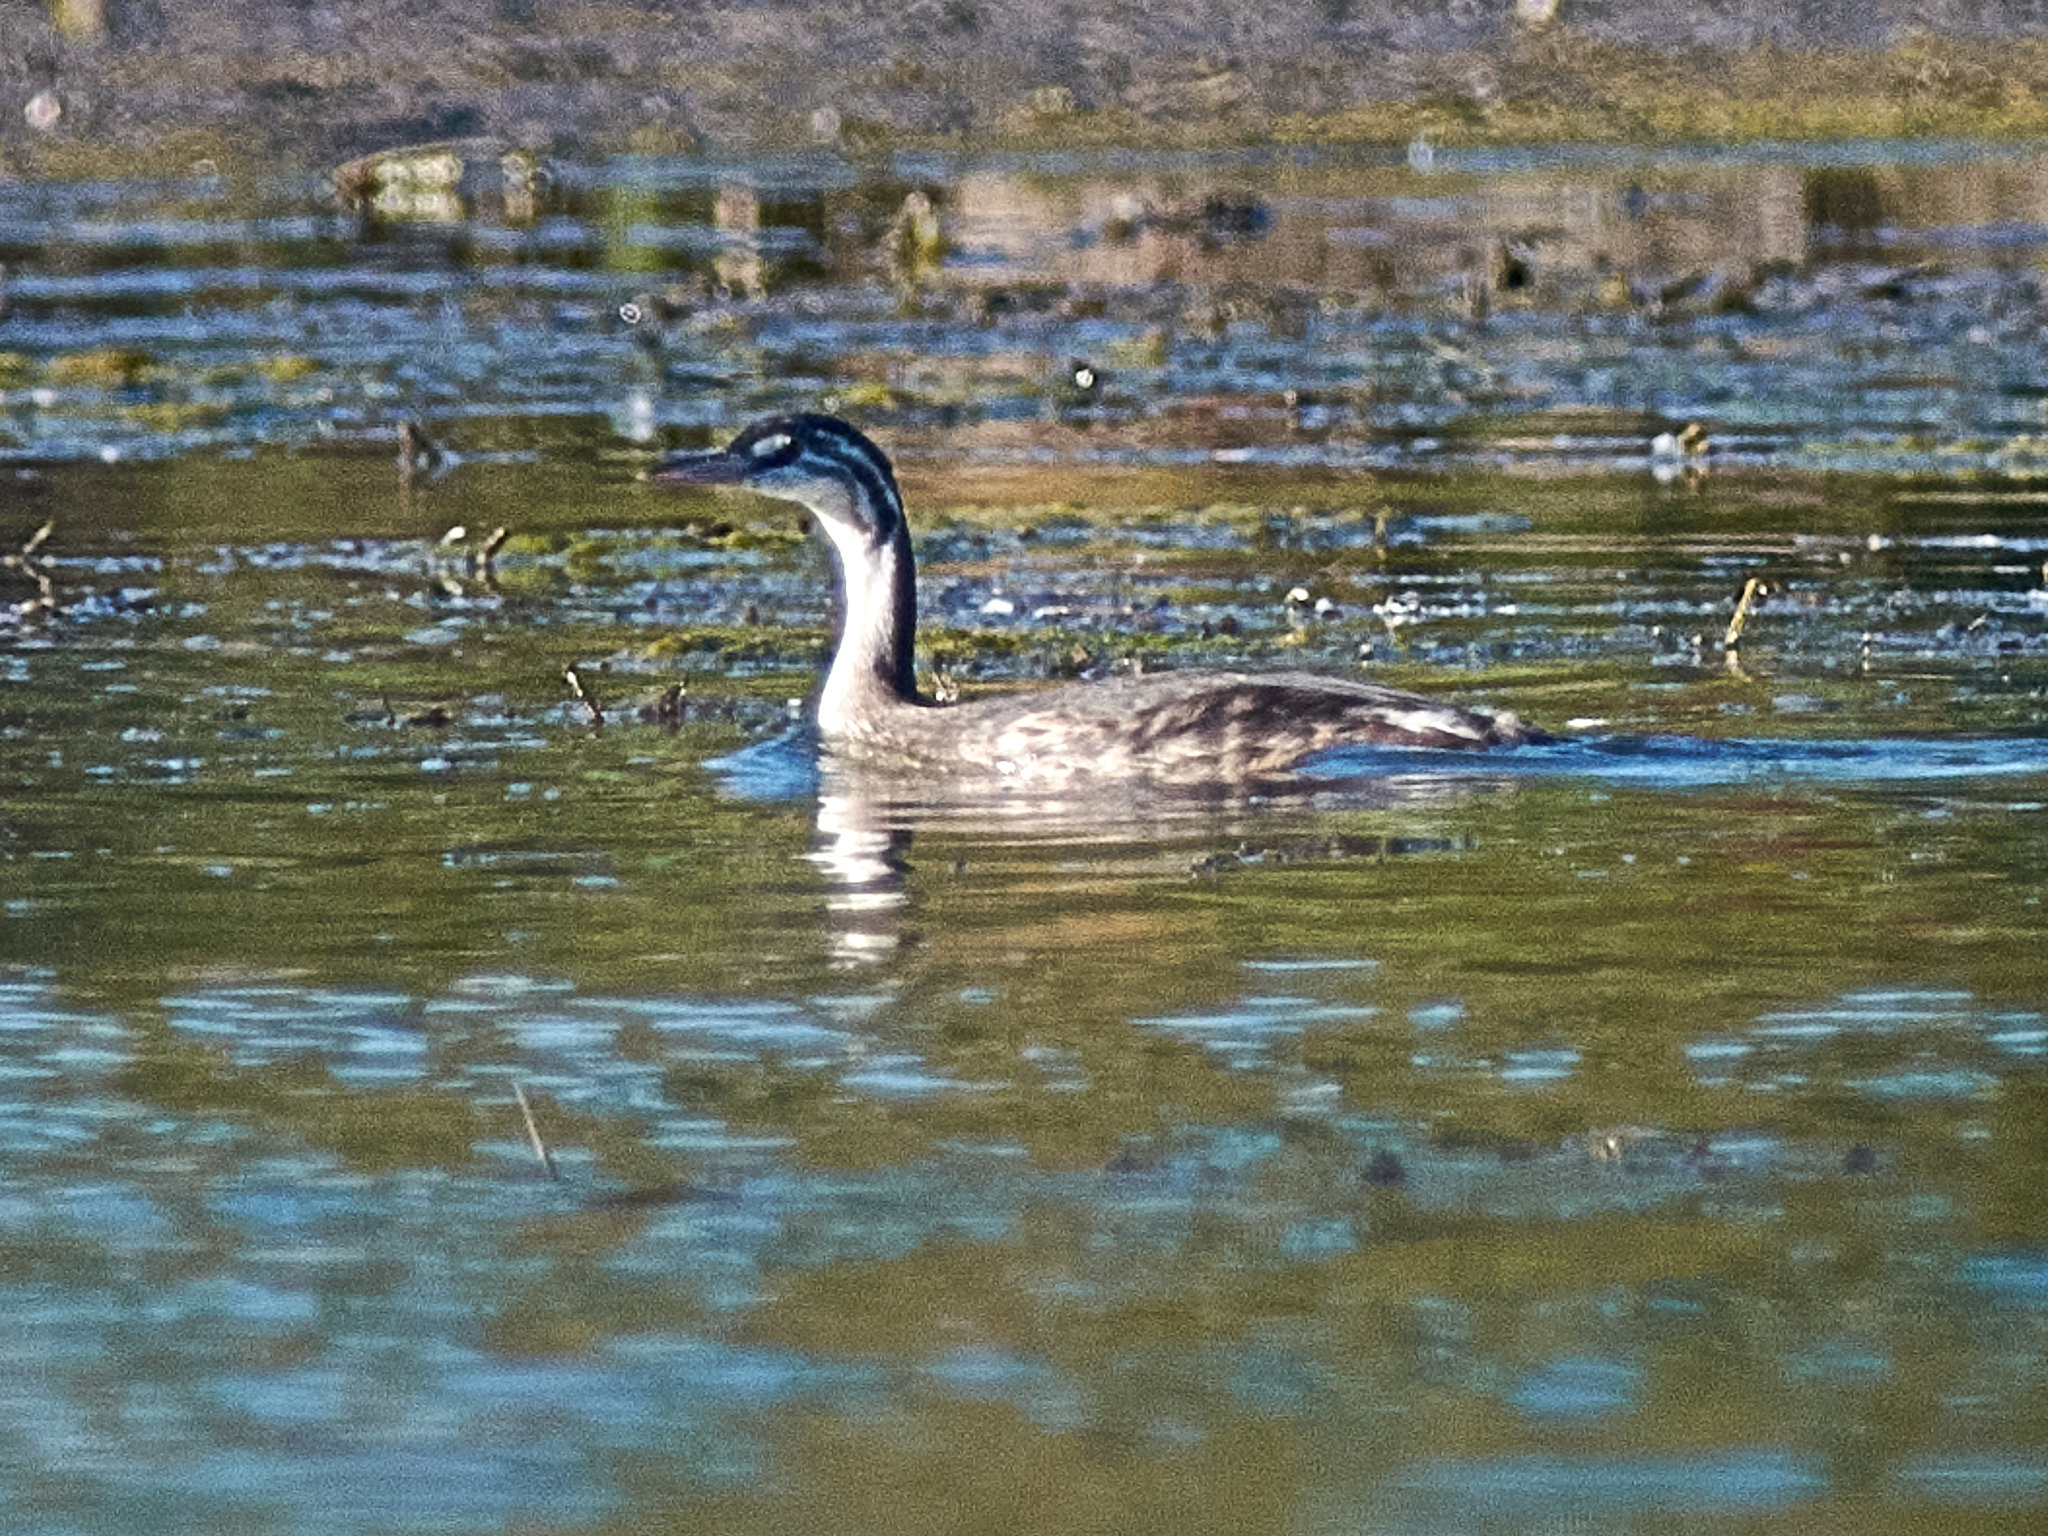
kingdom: Animalia
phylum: Chordata
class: Aves
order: Podicipediformes
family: Podicipedidae
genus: Podiceps
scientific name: Podiceps cristatus
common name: Great crested grebe
